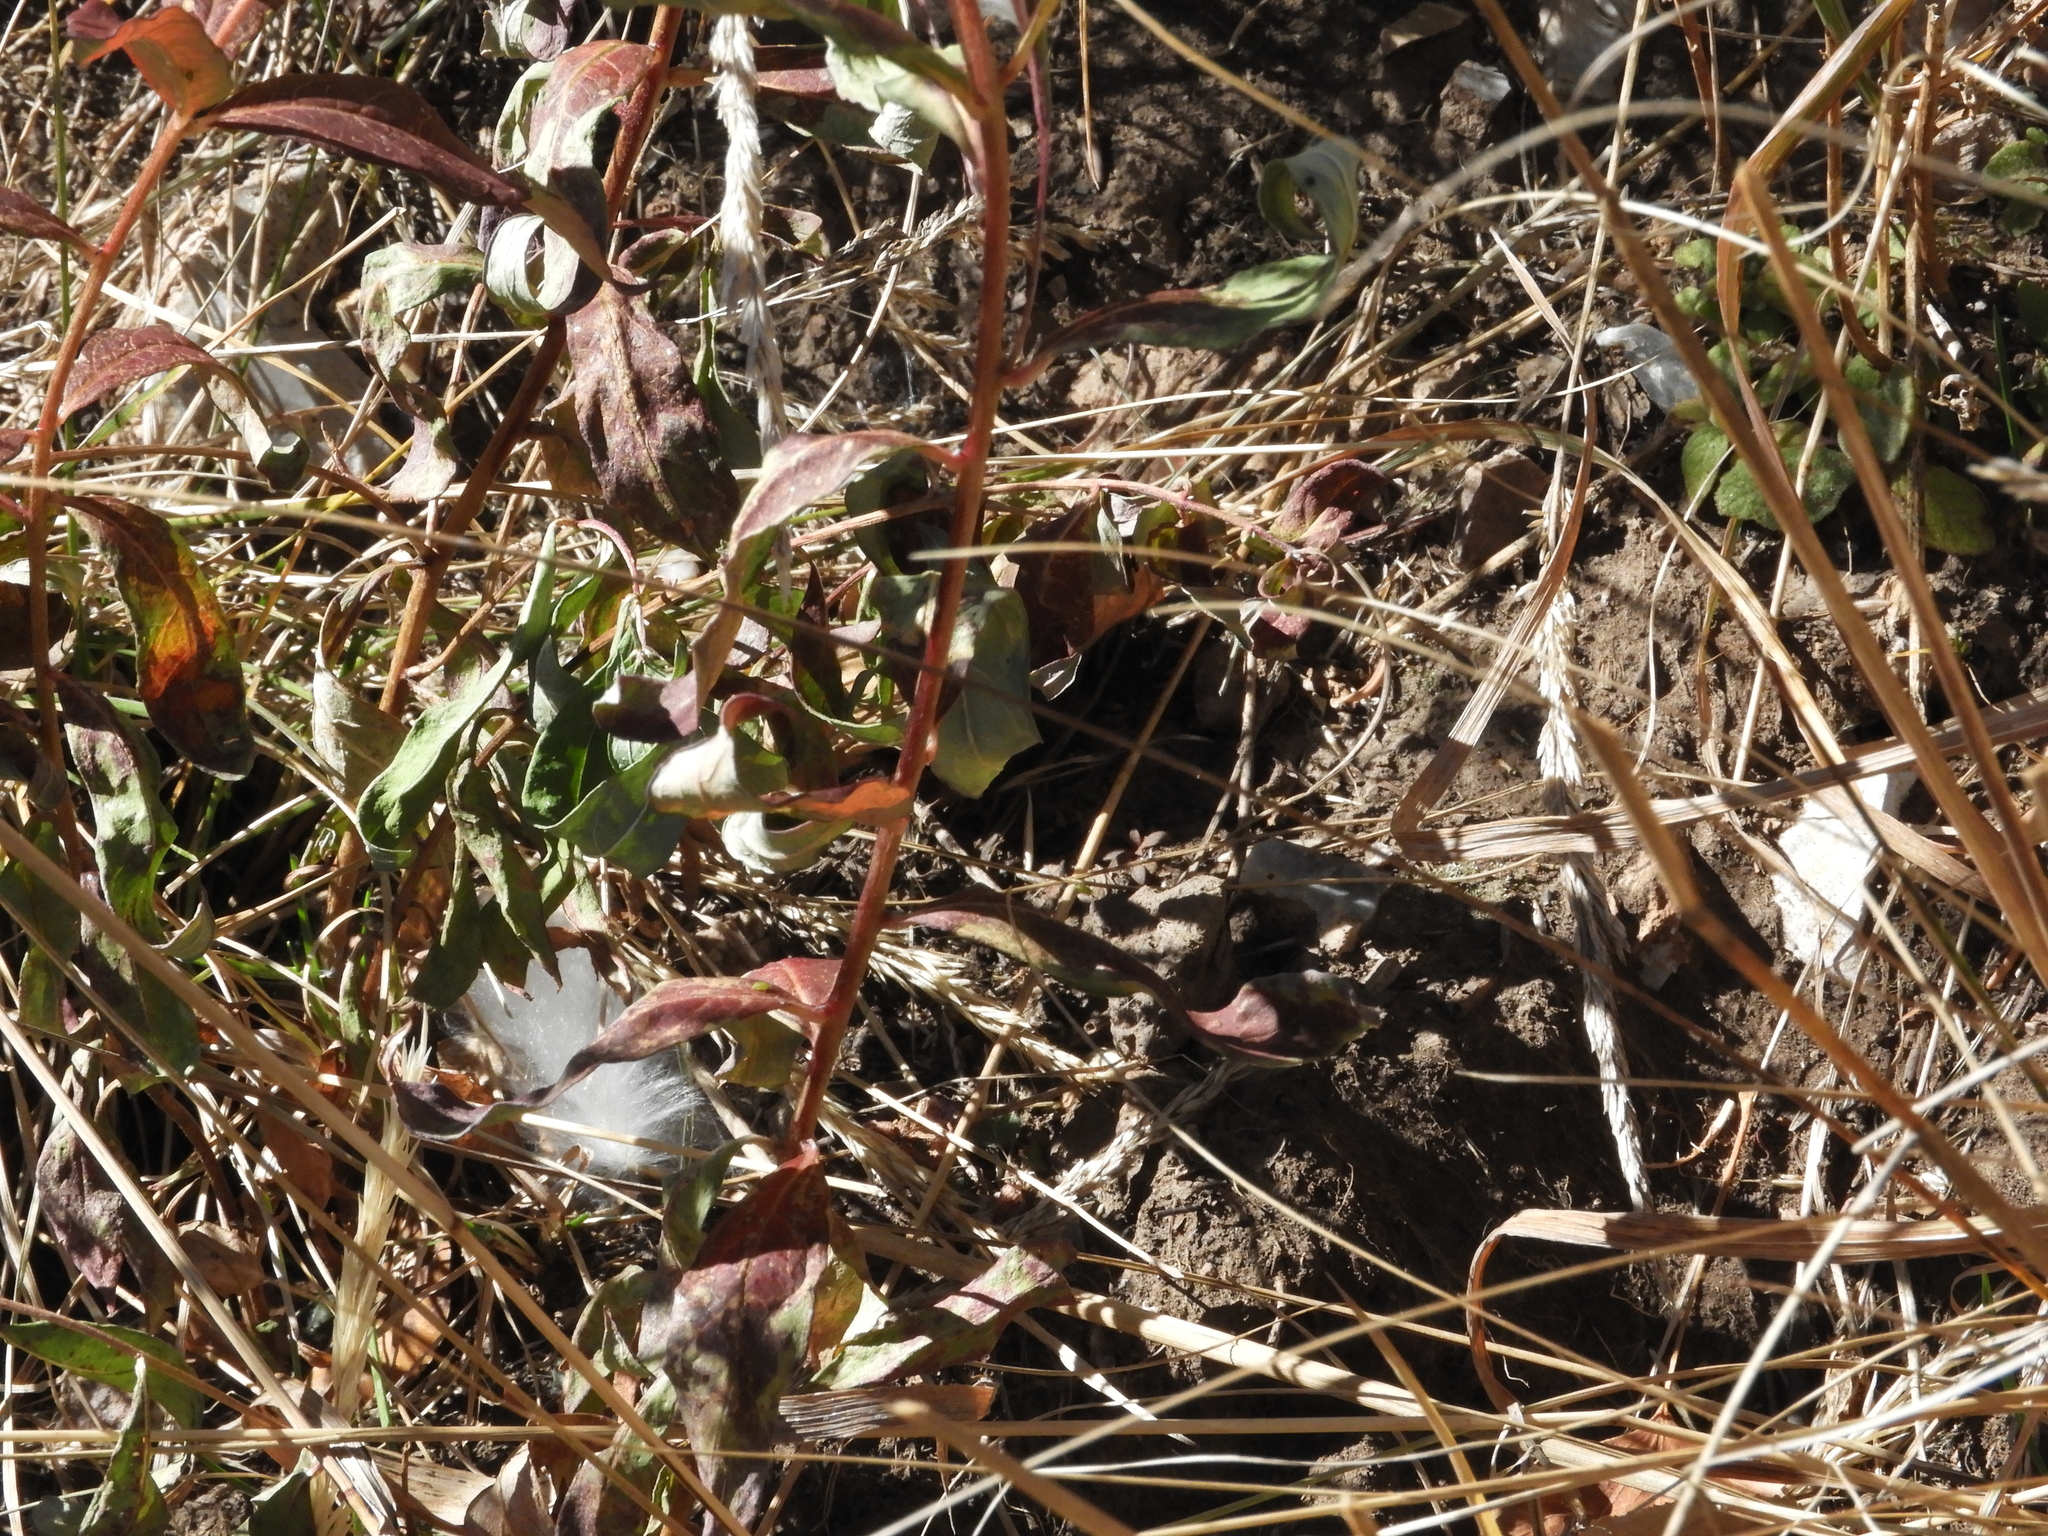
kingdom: Plantae
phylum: Tracheophyta
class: Magnoliopsida
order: Myrtales
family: Onagraceae
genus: Chamaenerion
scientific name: Chamaenerion angustifolium
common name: Fireweed
